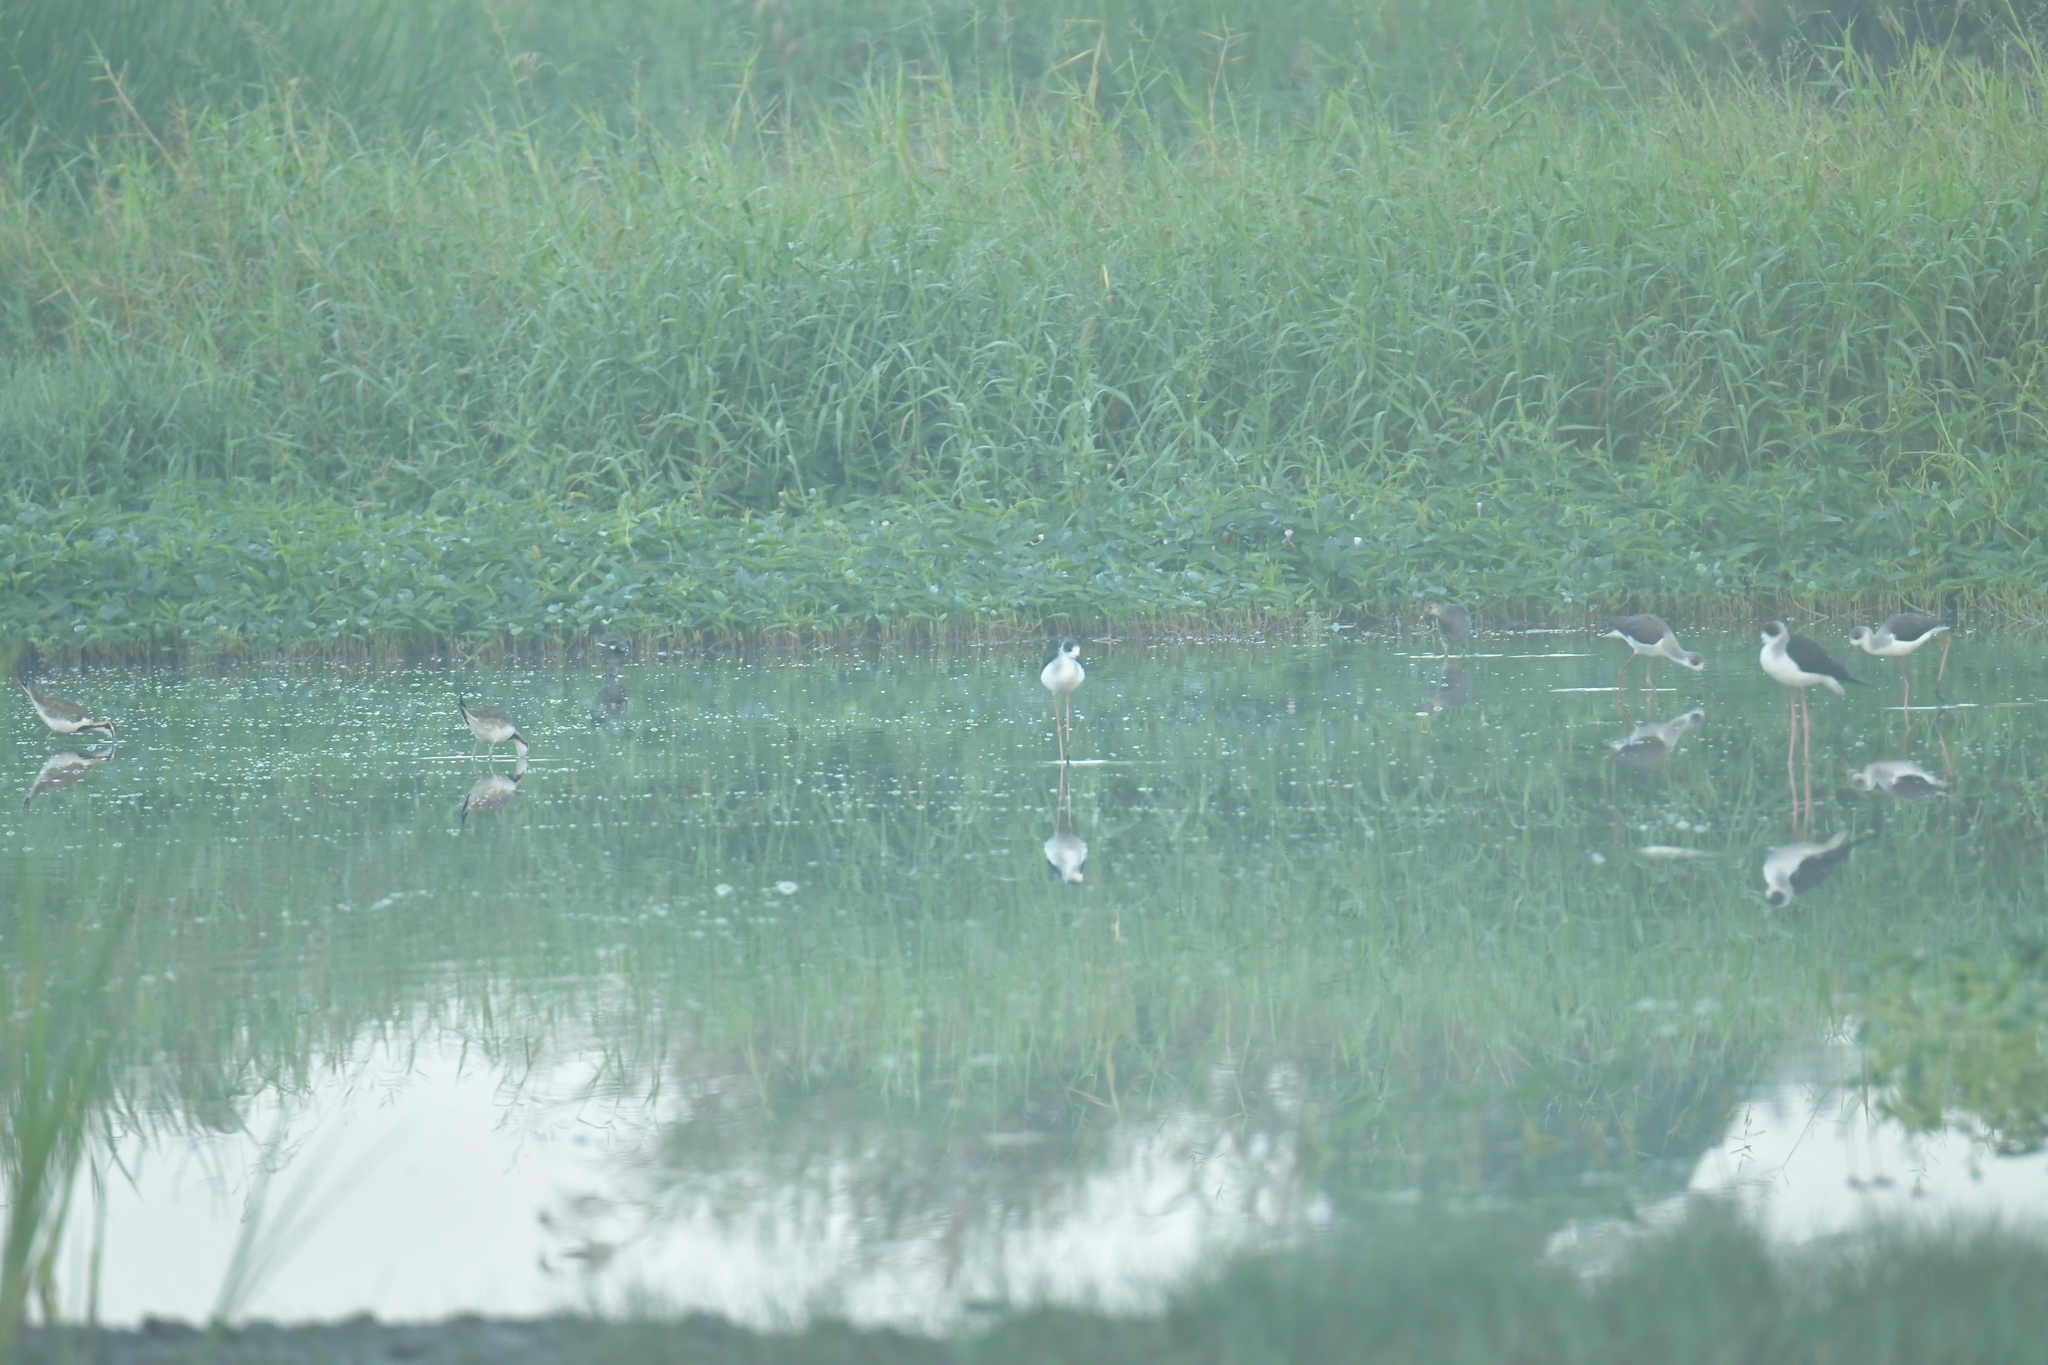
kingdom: Animalia
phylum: Chordata
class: Aves
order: Charadriiformes
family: Jacanidae
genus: Hydrophasianus
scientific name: Hydrophasianus chirurgus
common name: Pheasant-tailed jacana
